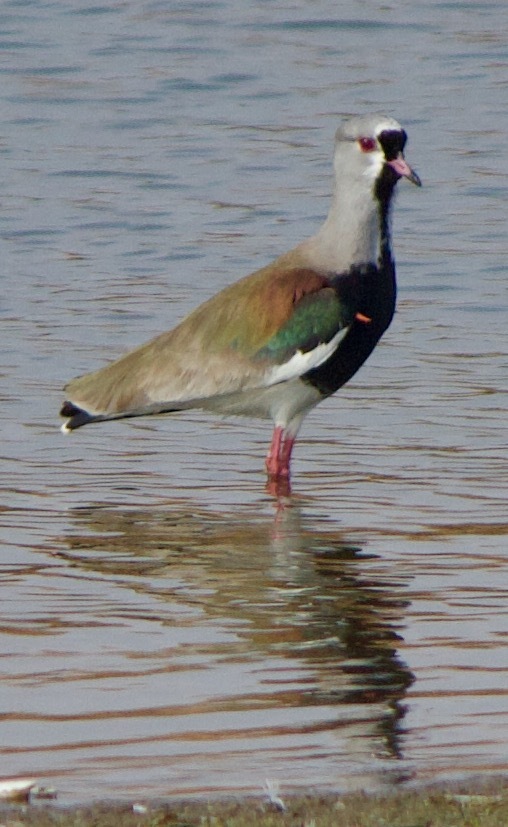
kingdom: Animalia
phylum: Chordata
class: Aves
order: Charadriiformes
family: Charadriidae
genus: Vanellus
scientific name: Vanellus chilensis
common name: Southern lapwing
